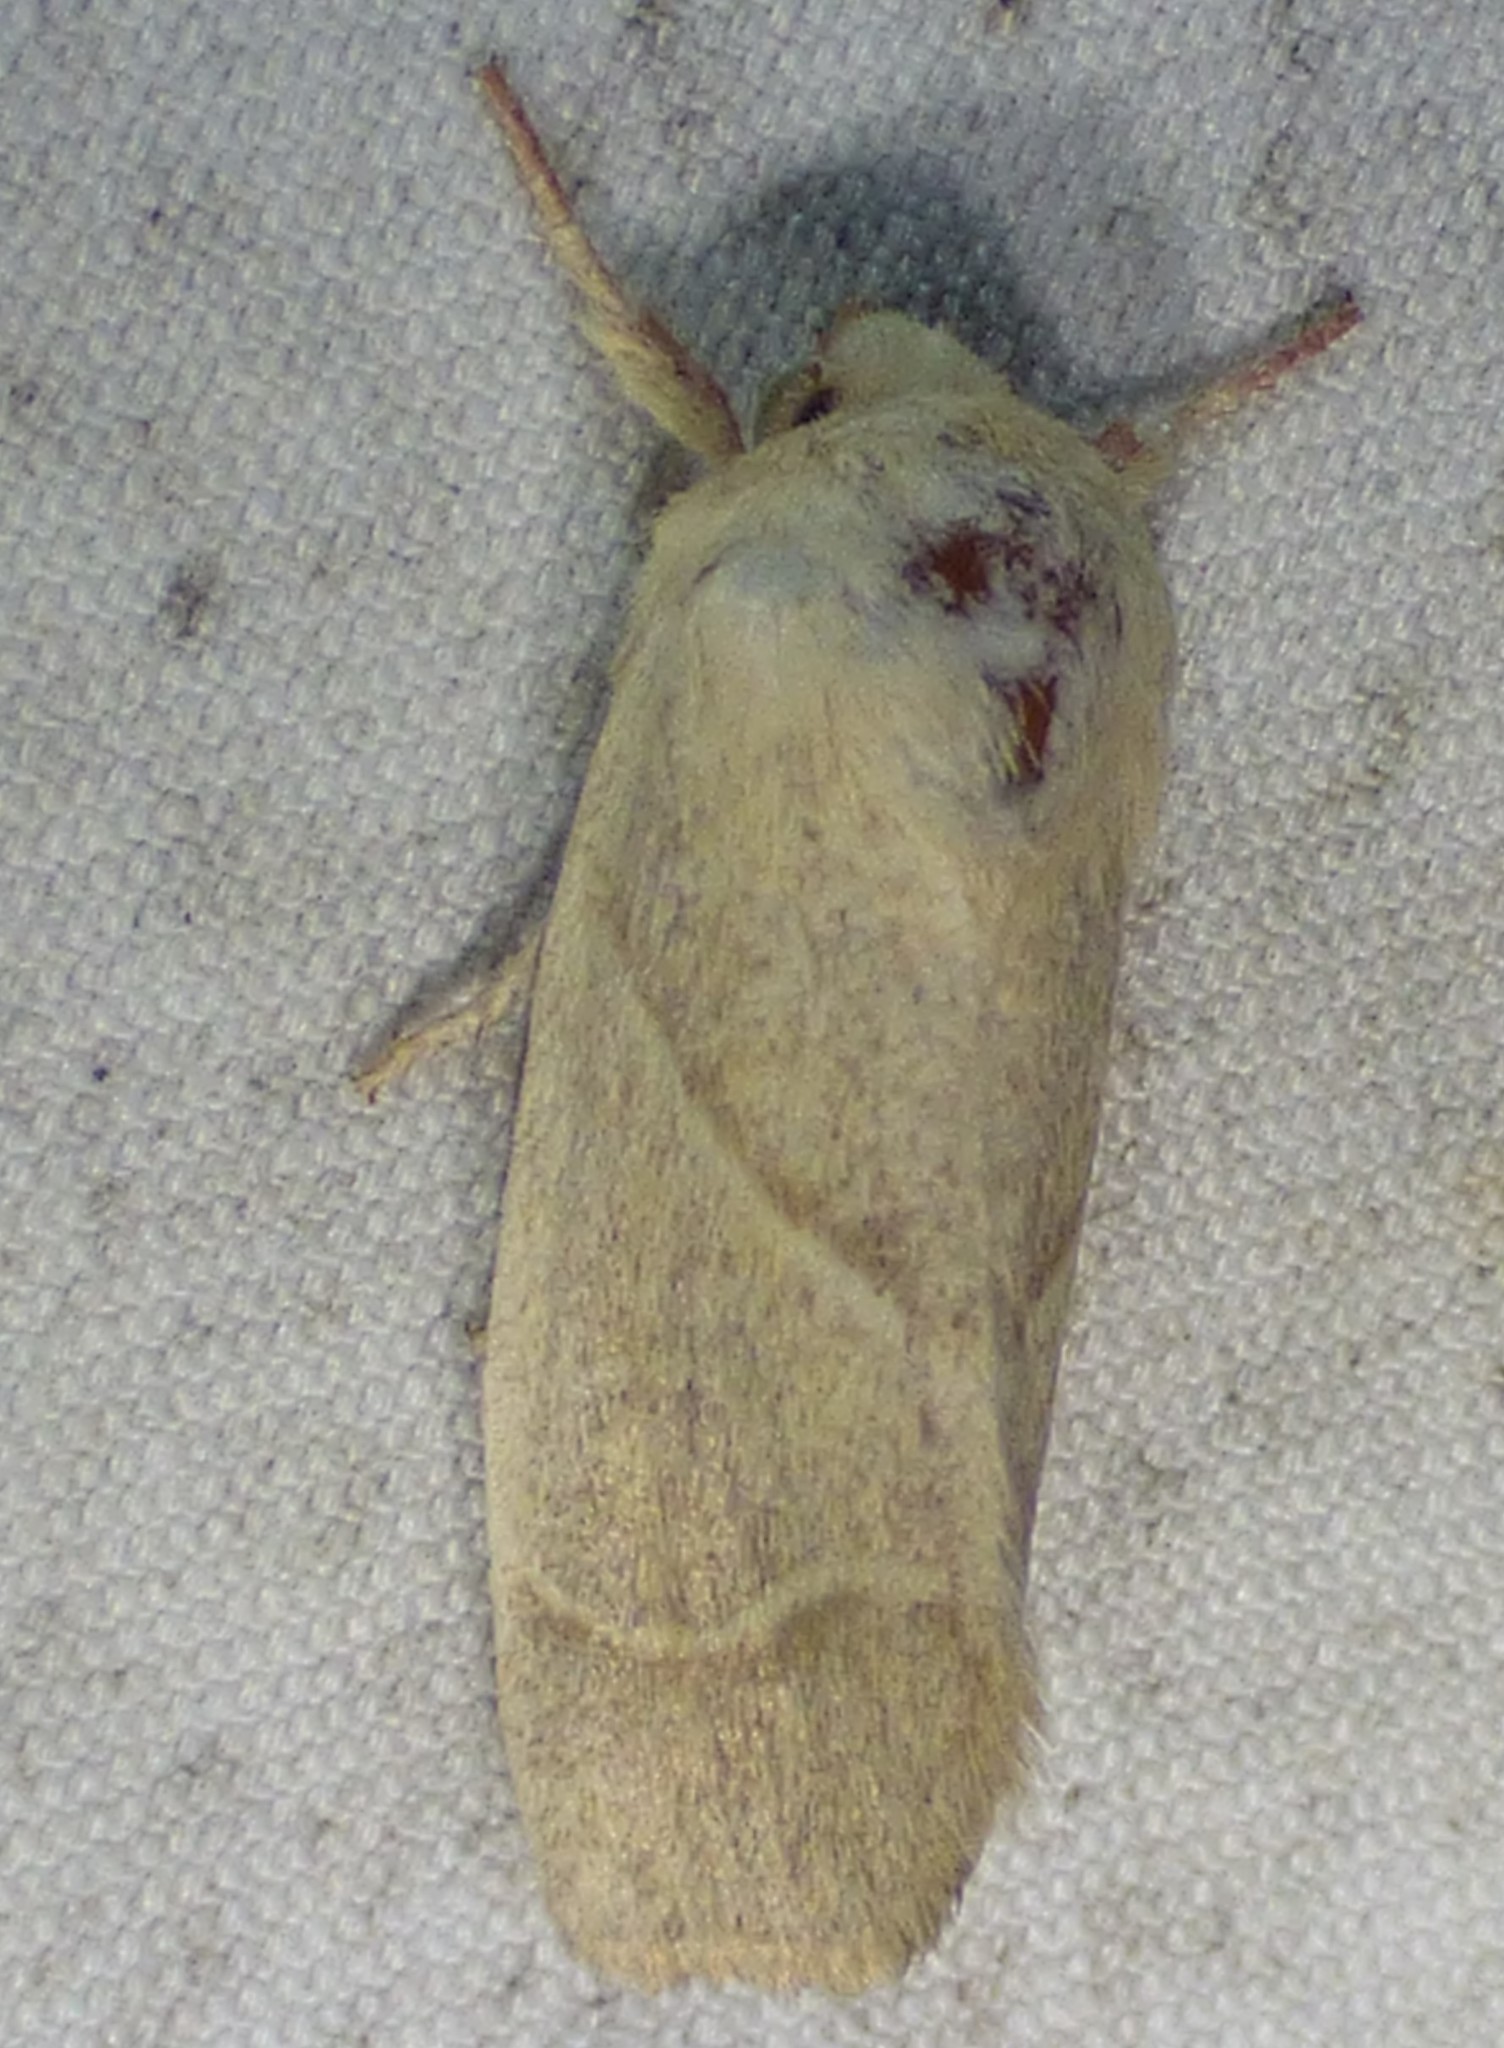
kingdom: Animalia
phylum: Arthropoda
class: Insecta
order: Lepidoptera
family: Noctuidae
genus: Cosmia
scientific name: Cosmia calami
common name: American dun-bar moth
